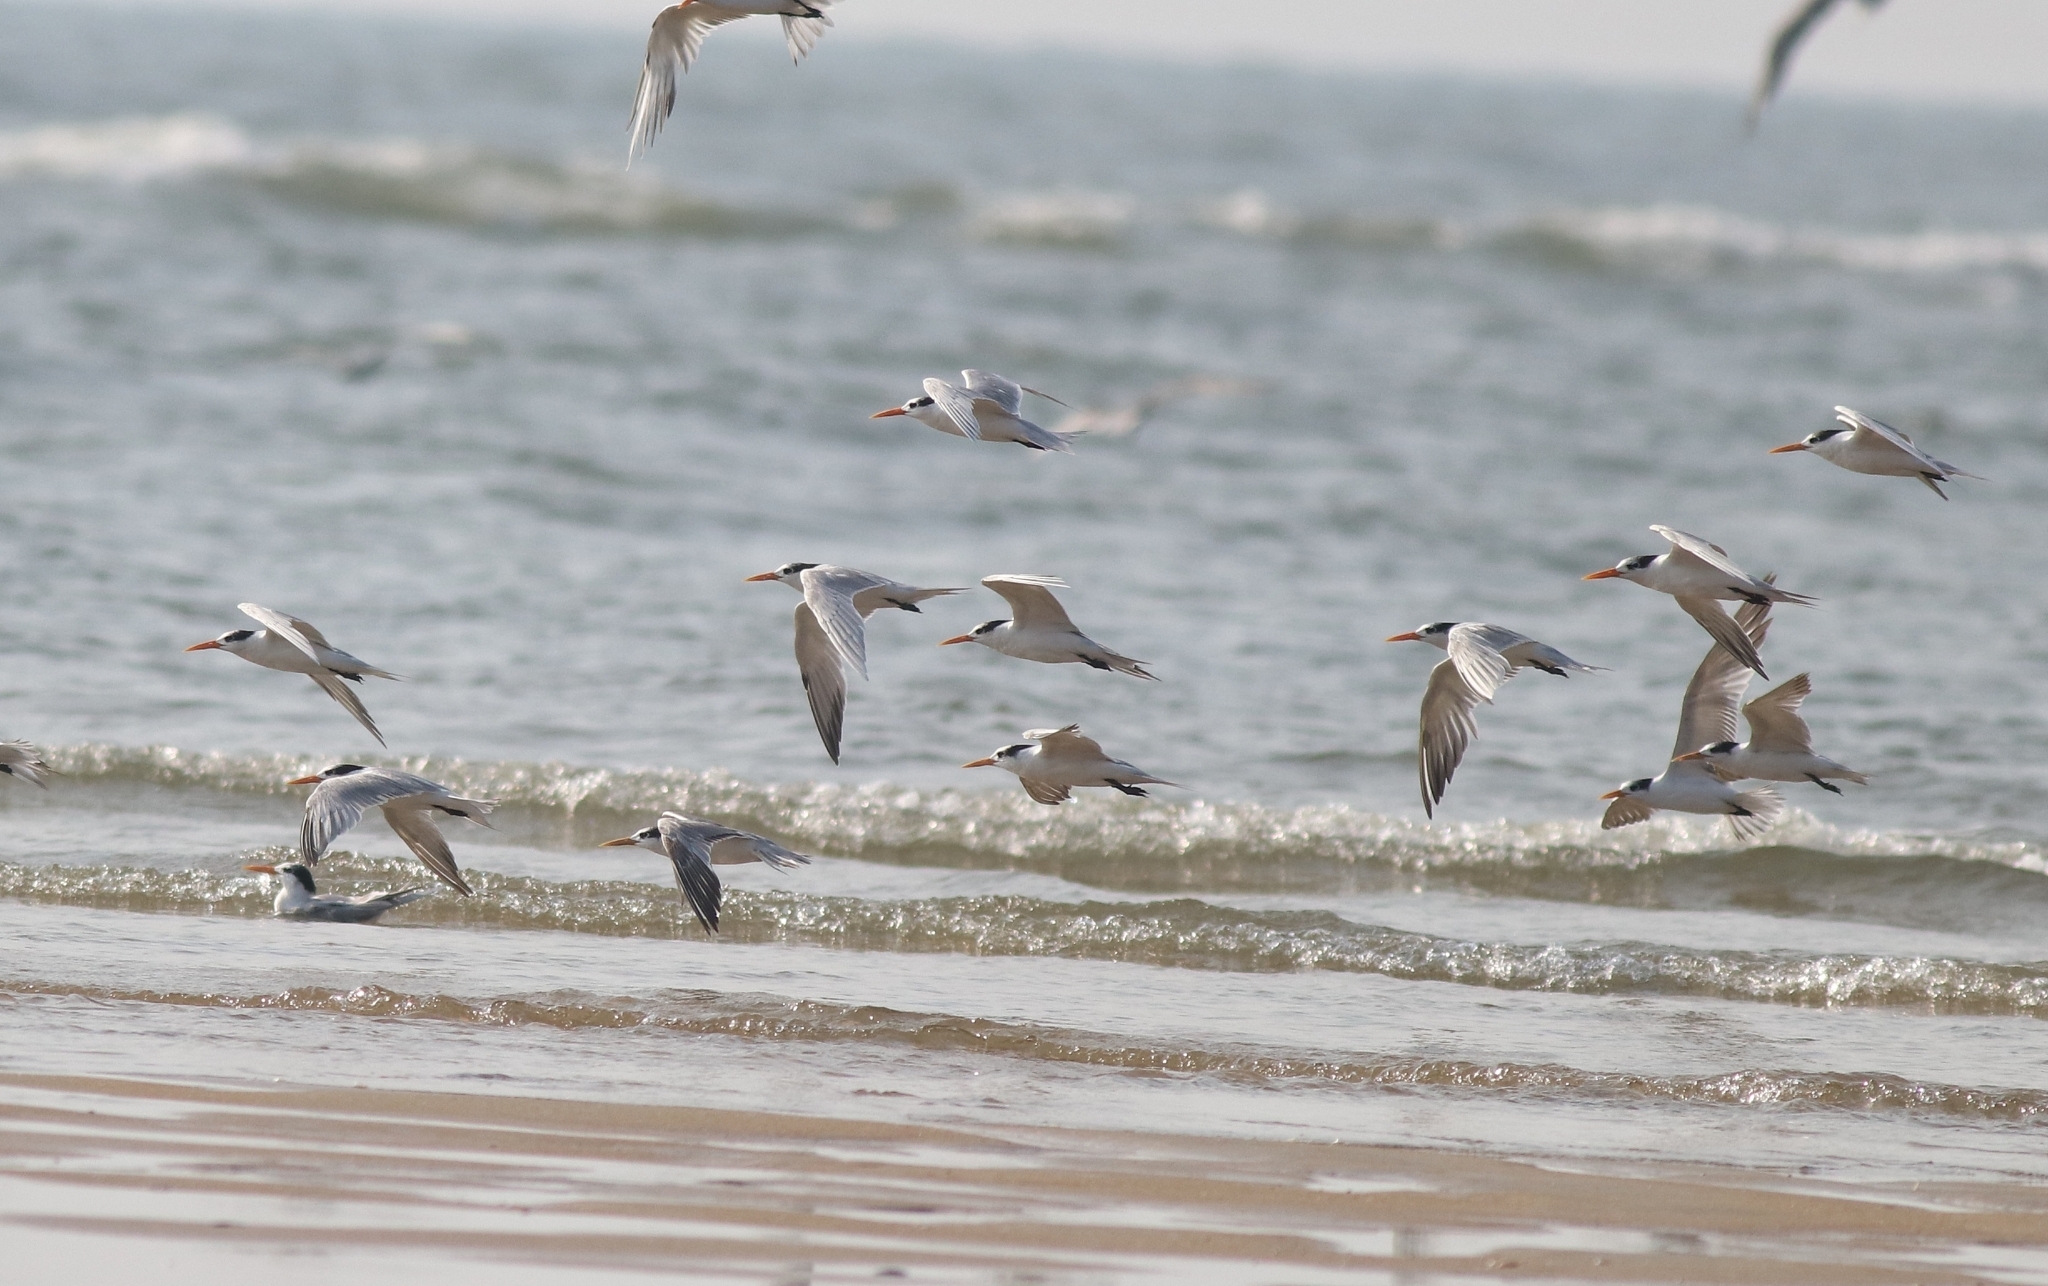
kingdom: Animalia
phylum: Chordata
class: Aves
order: Charadriiformes
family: Laridae
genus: Thalasseus
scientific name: Thalasseus bengalensis
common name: Lesser crested tern
